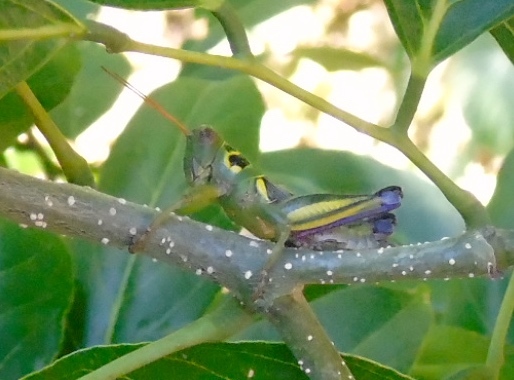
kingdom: Animalia
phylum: Arthropoda
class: Insecta
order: Orthoptera
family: Acrididae
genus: Barytettix
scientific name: Barytettix
